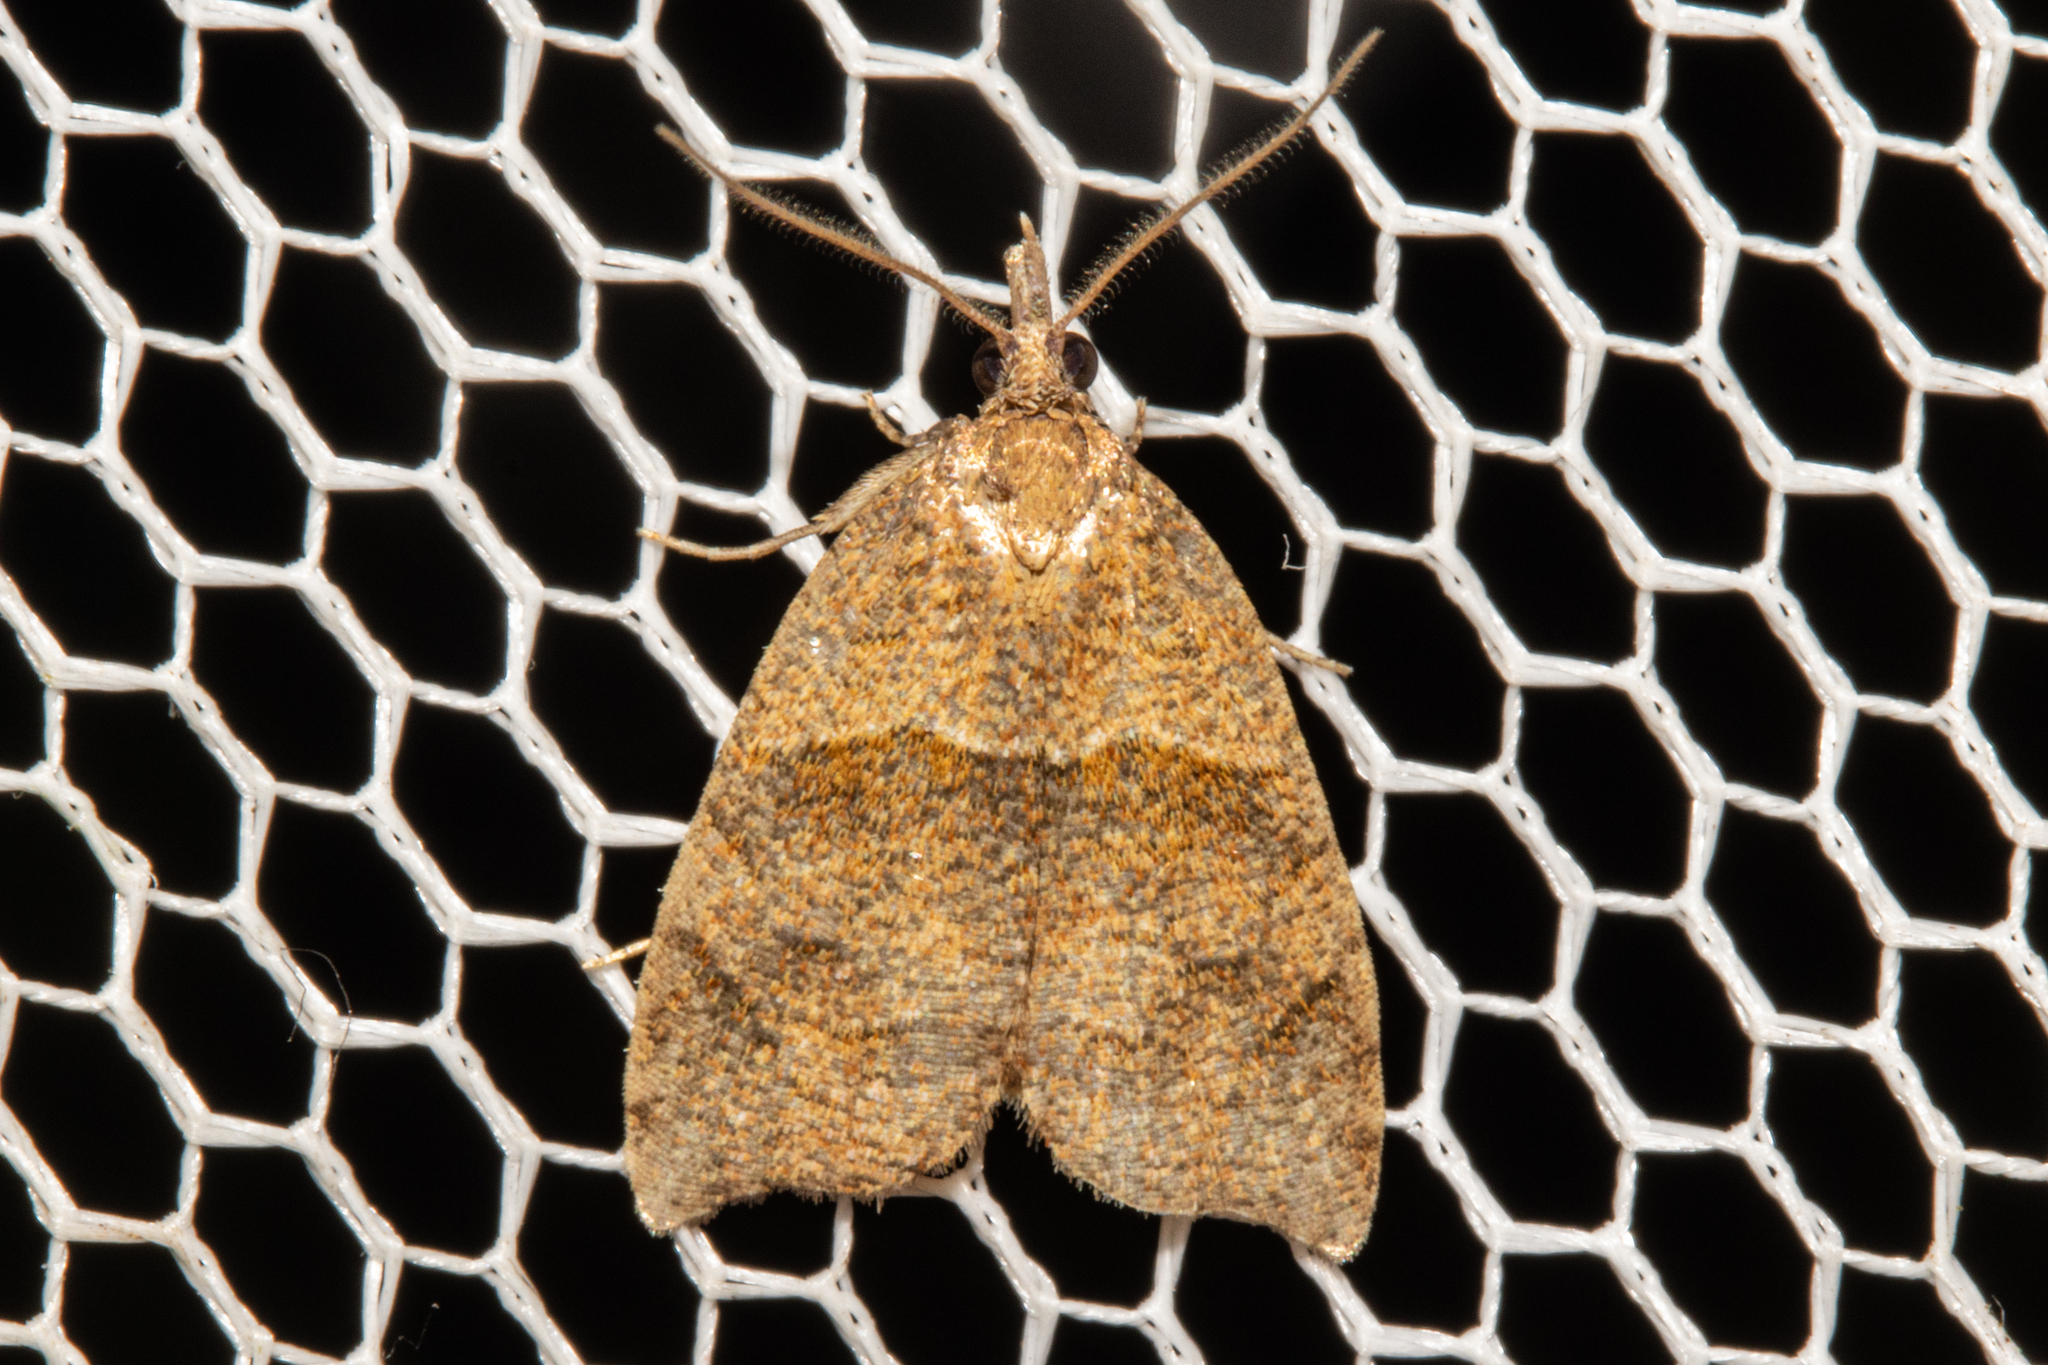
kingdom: Animalia
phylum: Arthropoda
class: Insecta
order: Lepidoptera
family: Tortricidae
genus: Cnephasia
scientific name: Cnephasia incertana
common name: Light grey tortrix
